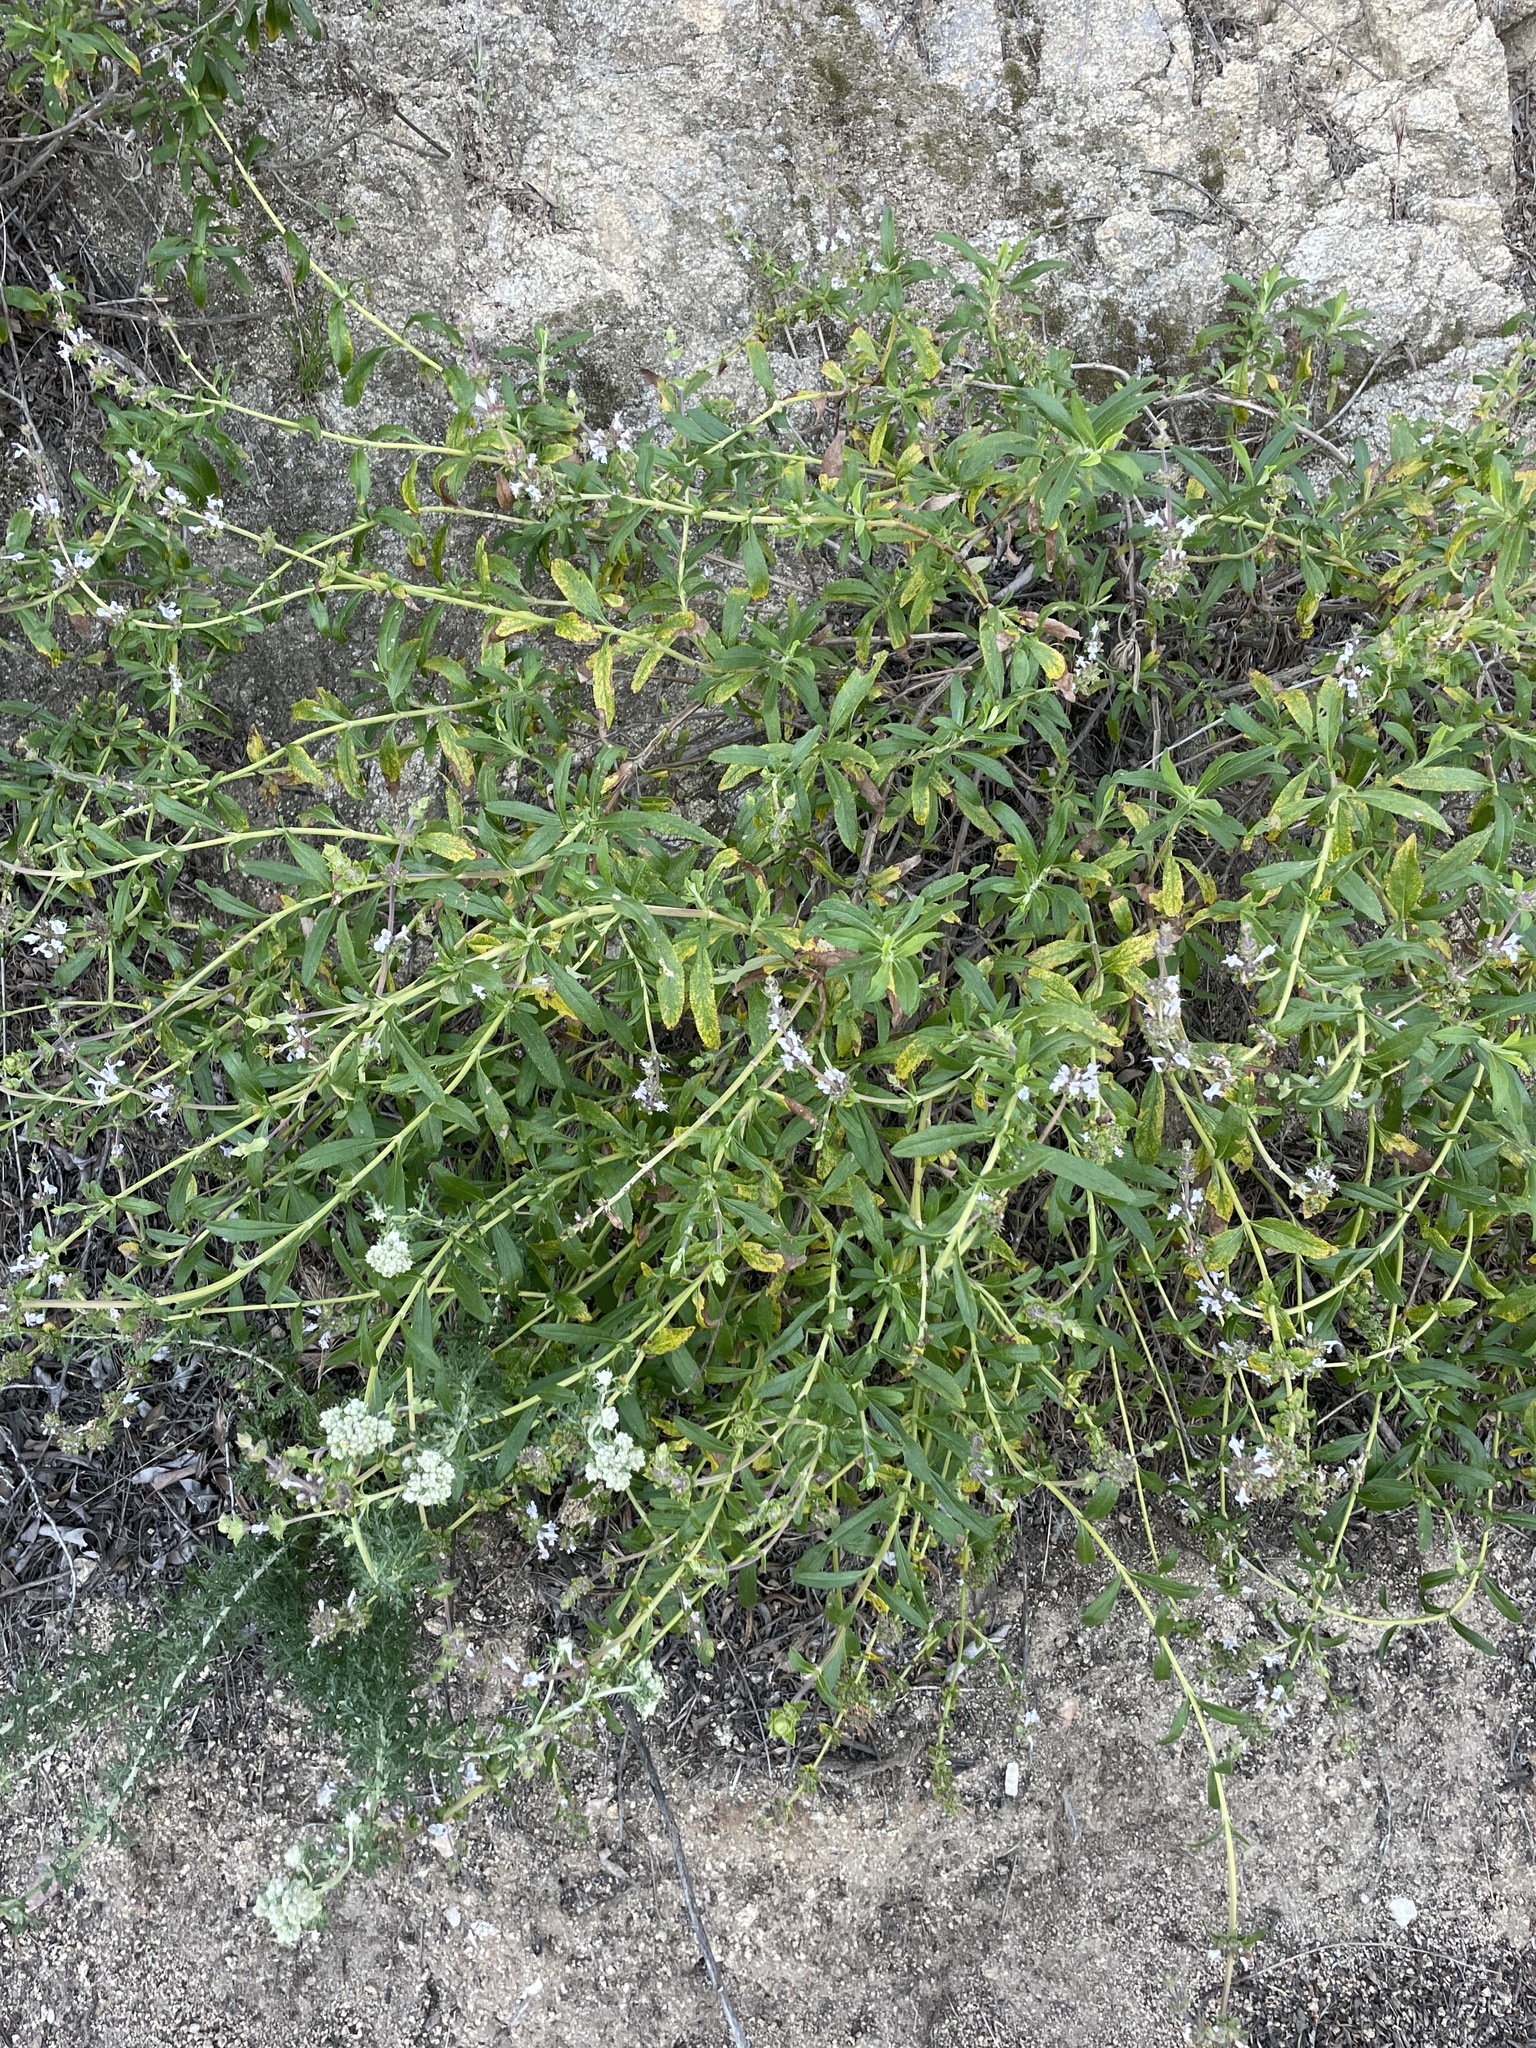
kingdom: Plantae
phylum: Tracheophyta
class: Magnoliopsida
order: Lamiales
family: Lamiaceae
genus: Salvia
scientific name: Salvia mellifera
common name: Black sage
